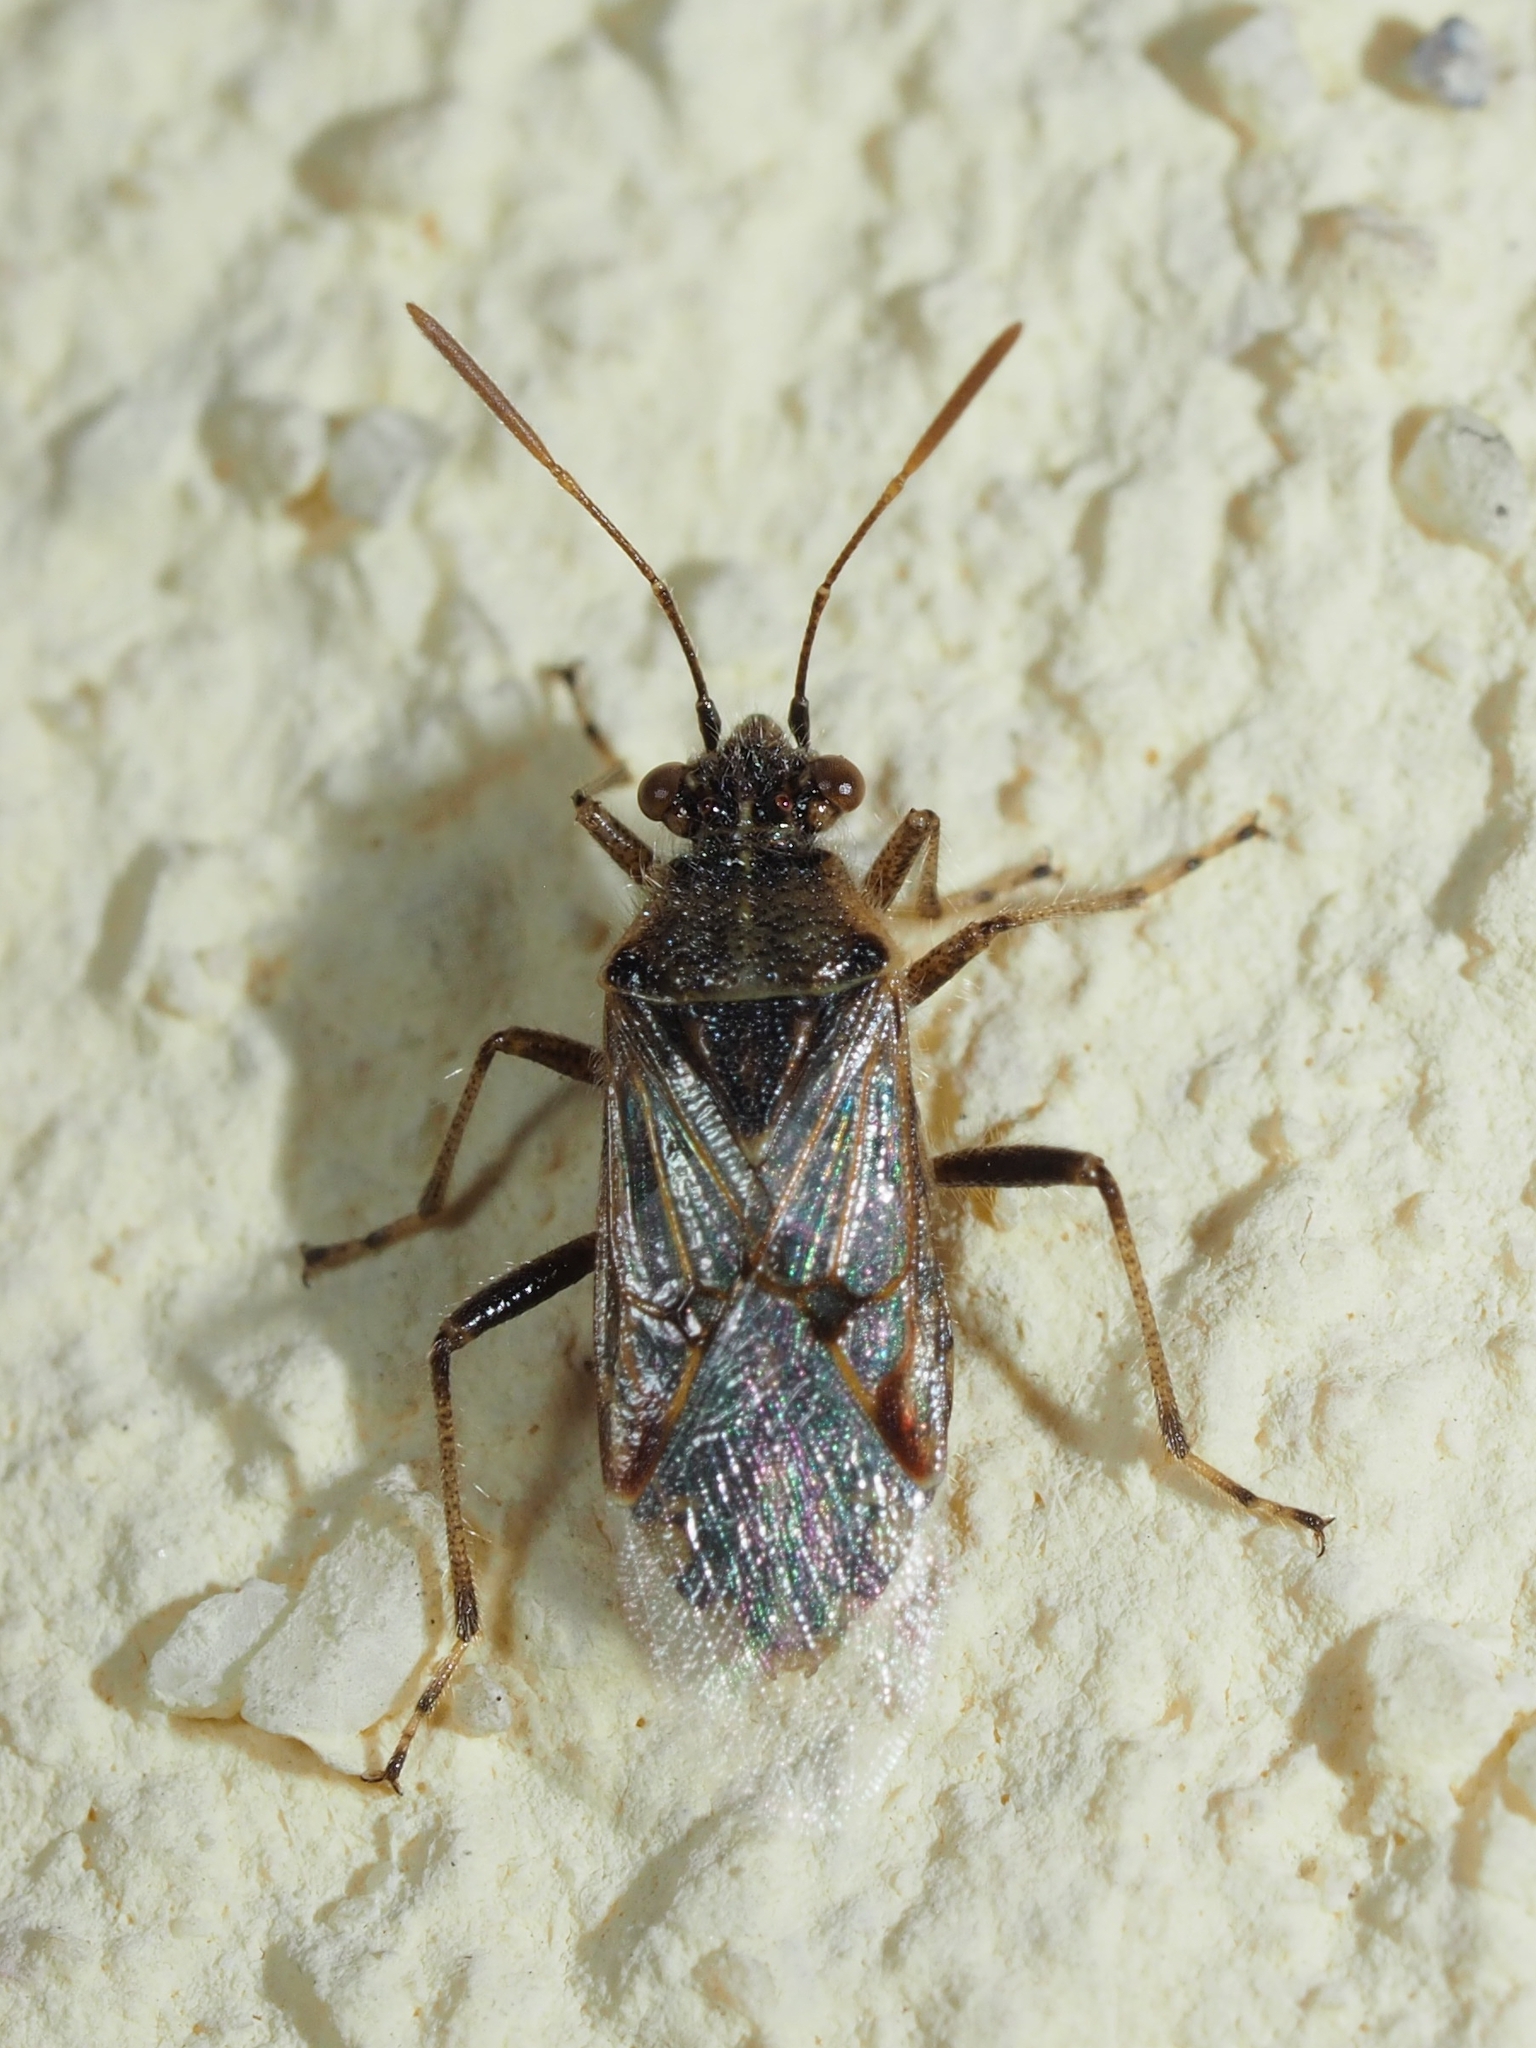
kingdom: Animalia
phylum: Arthropoda
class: Insecta
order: Hemiptera
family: Rhopalidae
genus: Liorhyssus
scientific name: Liorhyssus hyalinus
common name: Scentless plant bug
